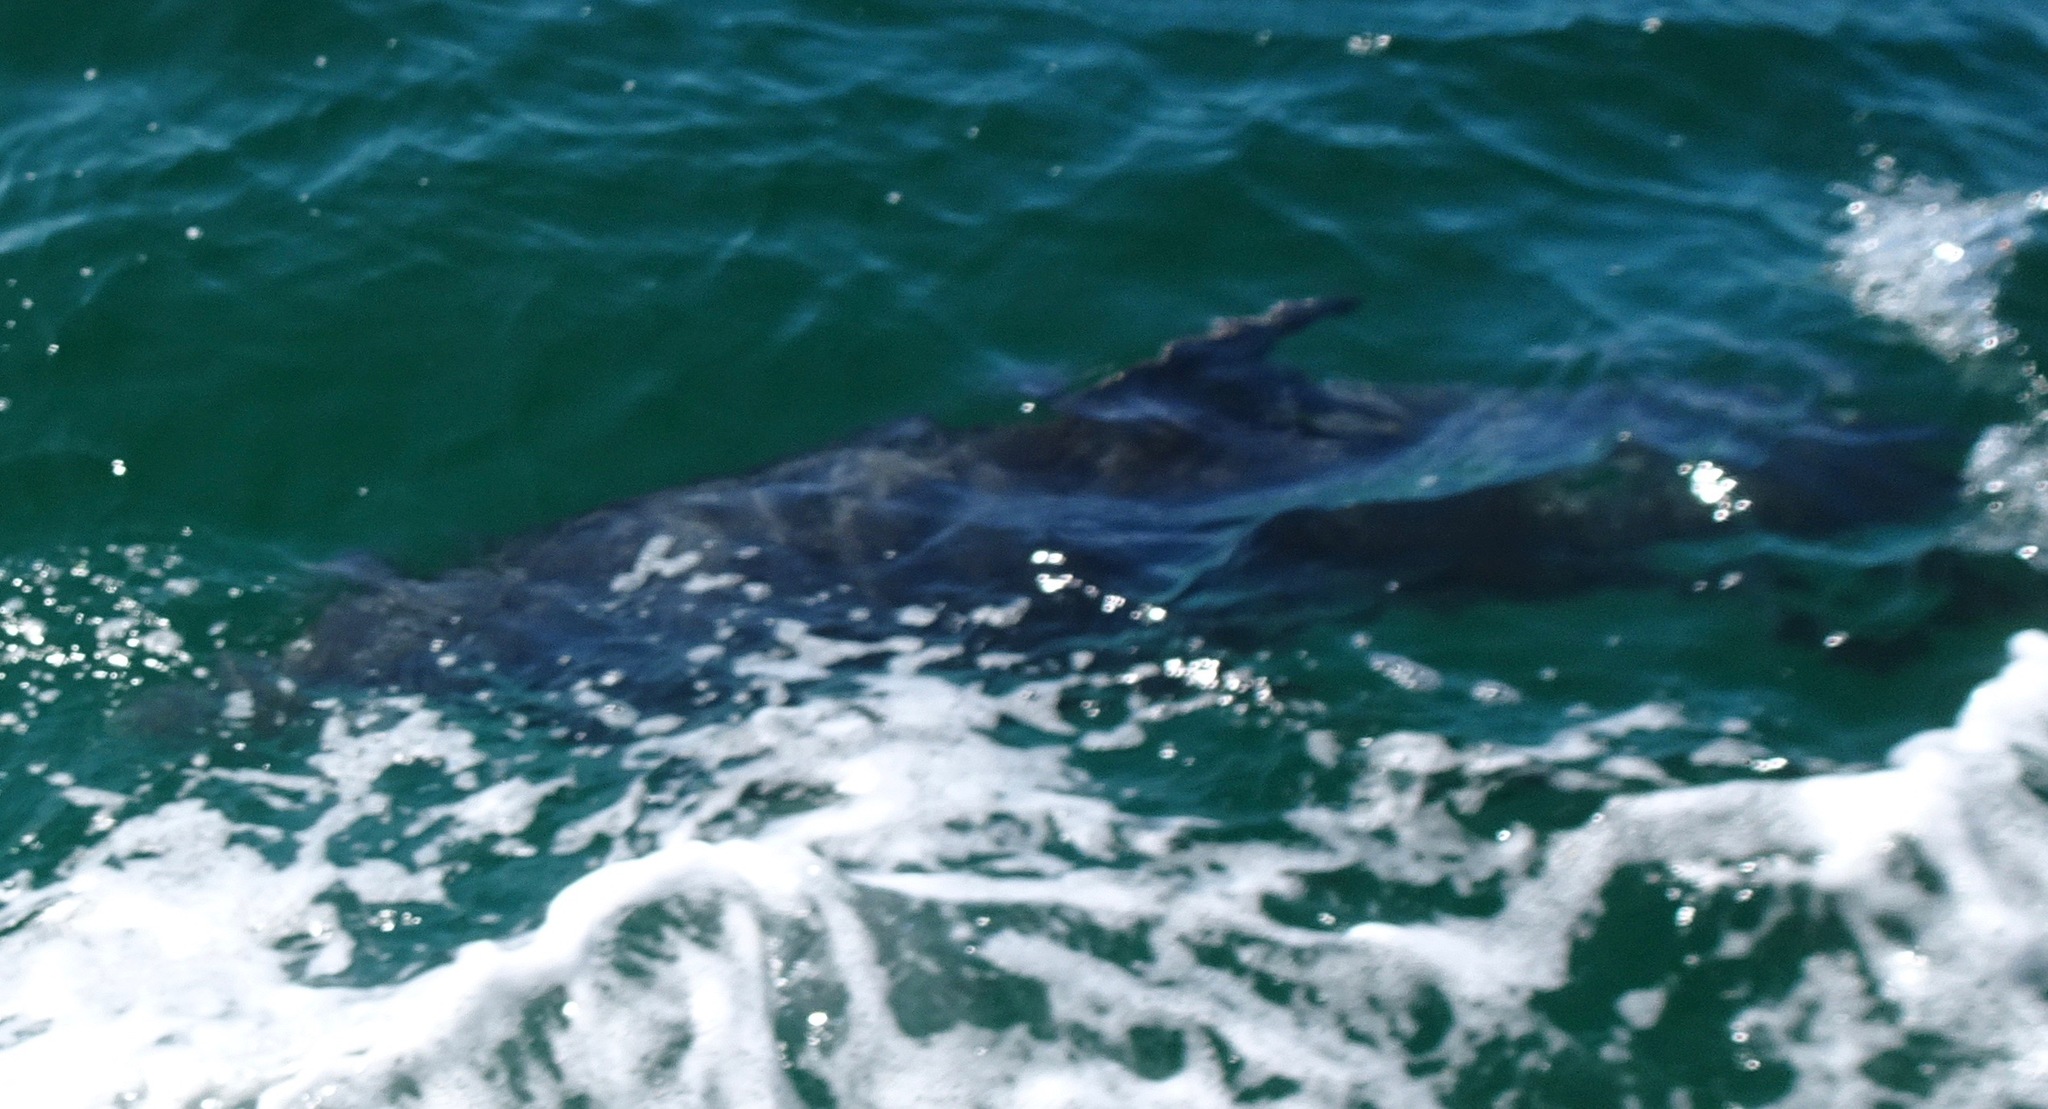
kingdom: Animalia
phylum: Chordata
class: Mammalia
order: Cetacea
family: Delphinidae
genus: Tursiops
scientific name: Tursiops truncatus
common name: Bottlenose dolphin
